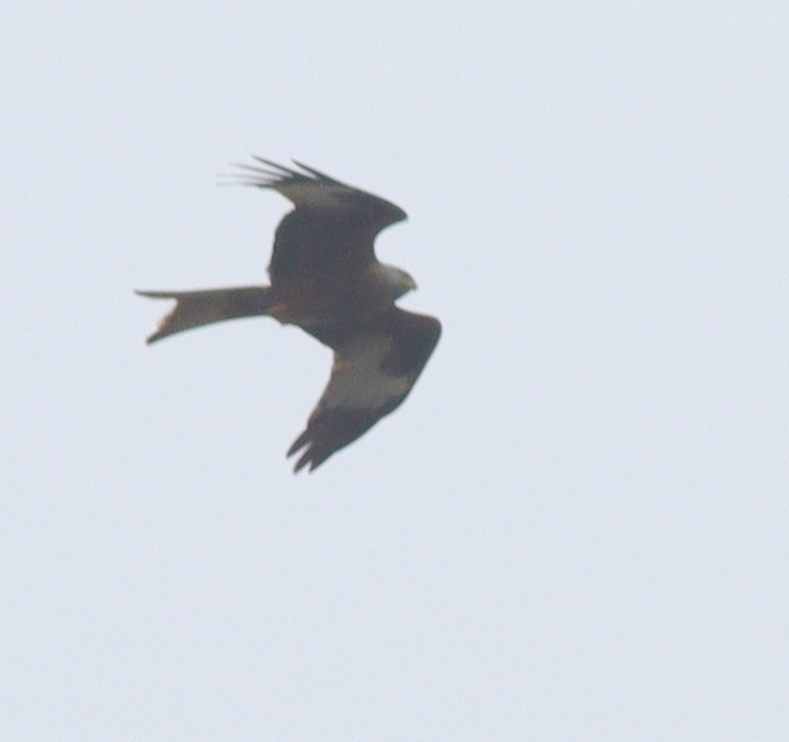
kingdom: Animalia
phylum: Chordata
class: Aves
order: Accipitriformes
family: Accipitridae
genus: Milvus
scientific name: Milvus milvus
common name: Red kite
